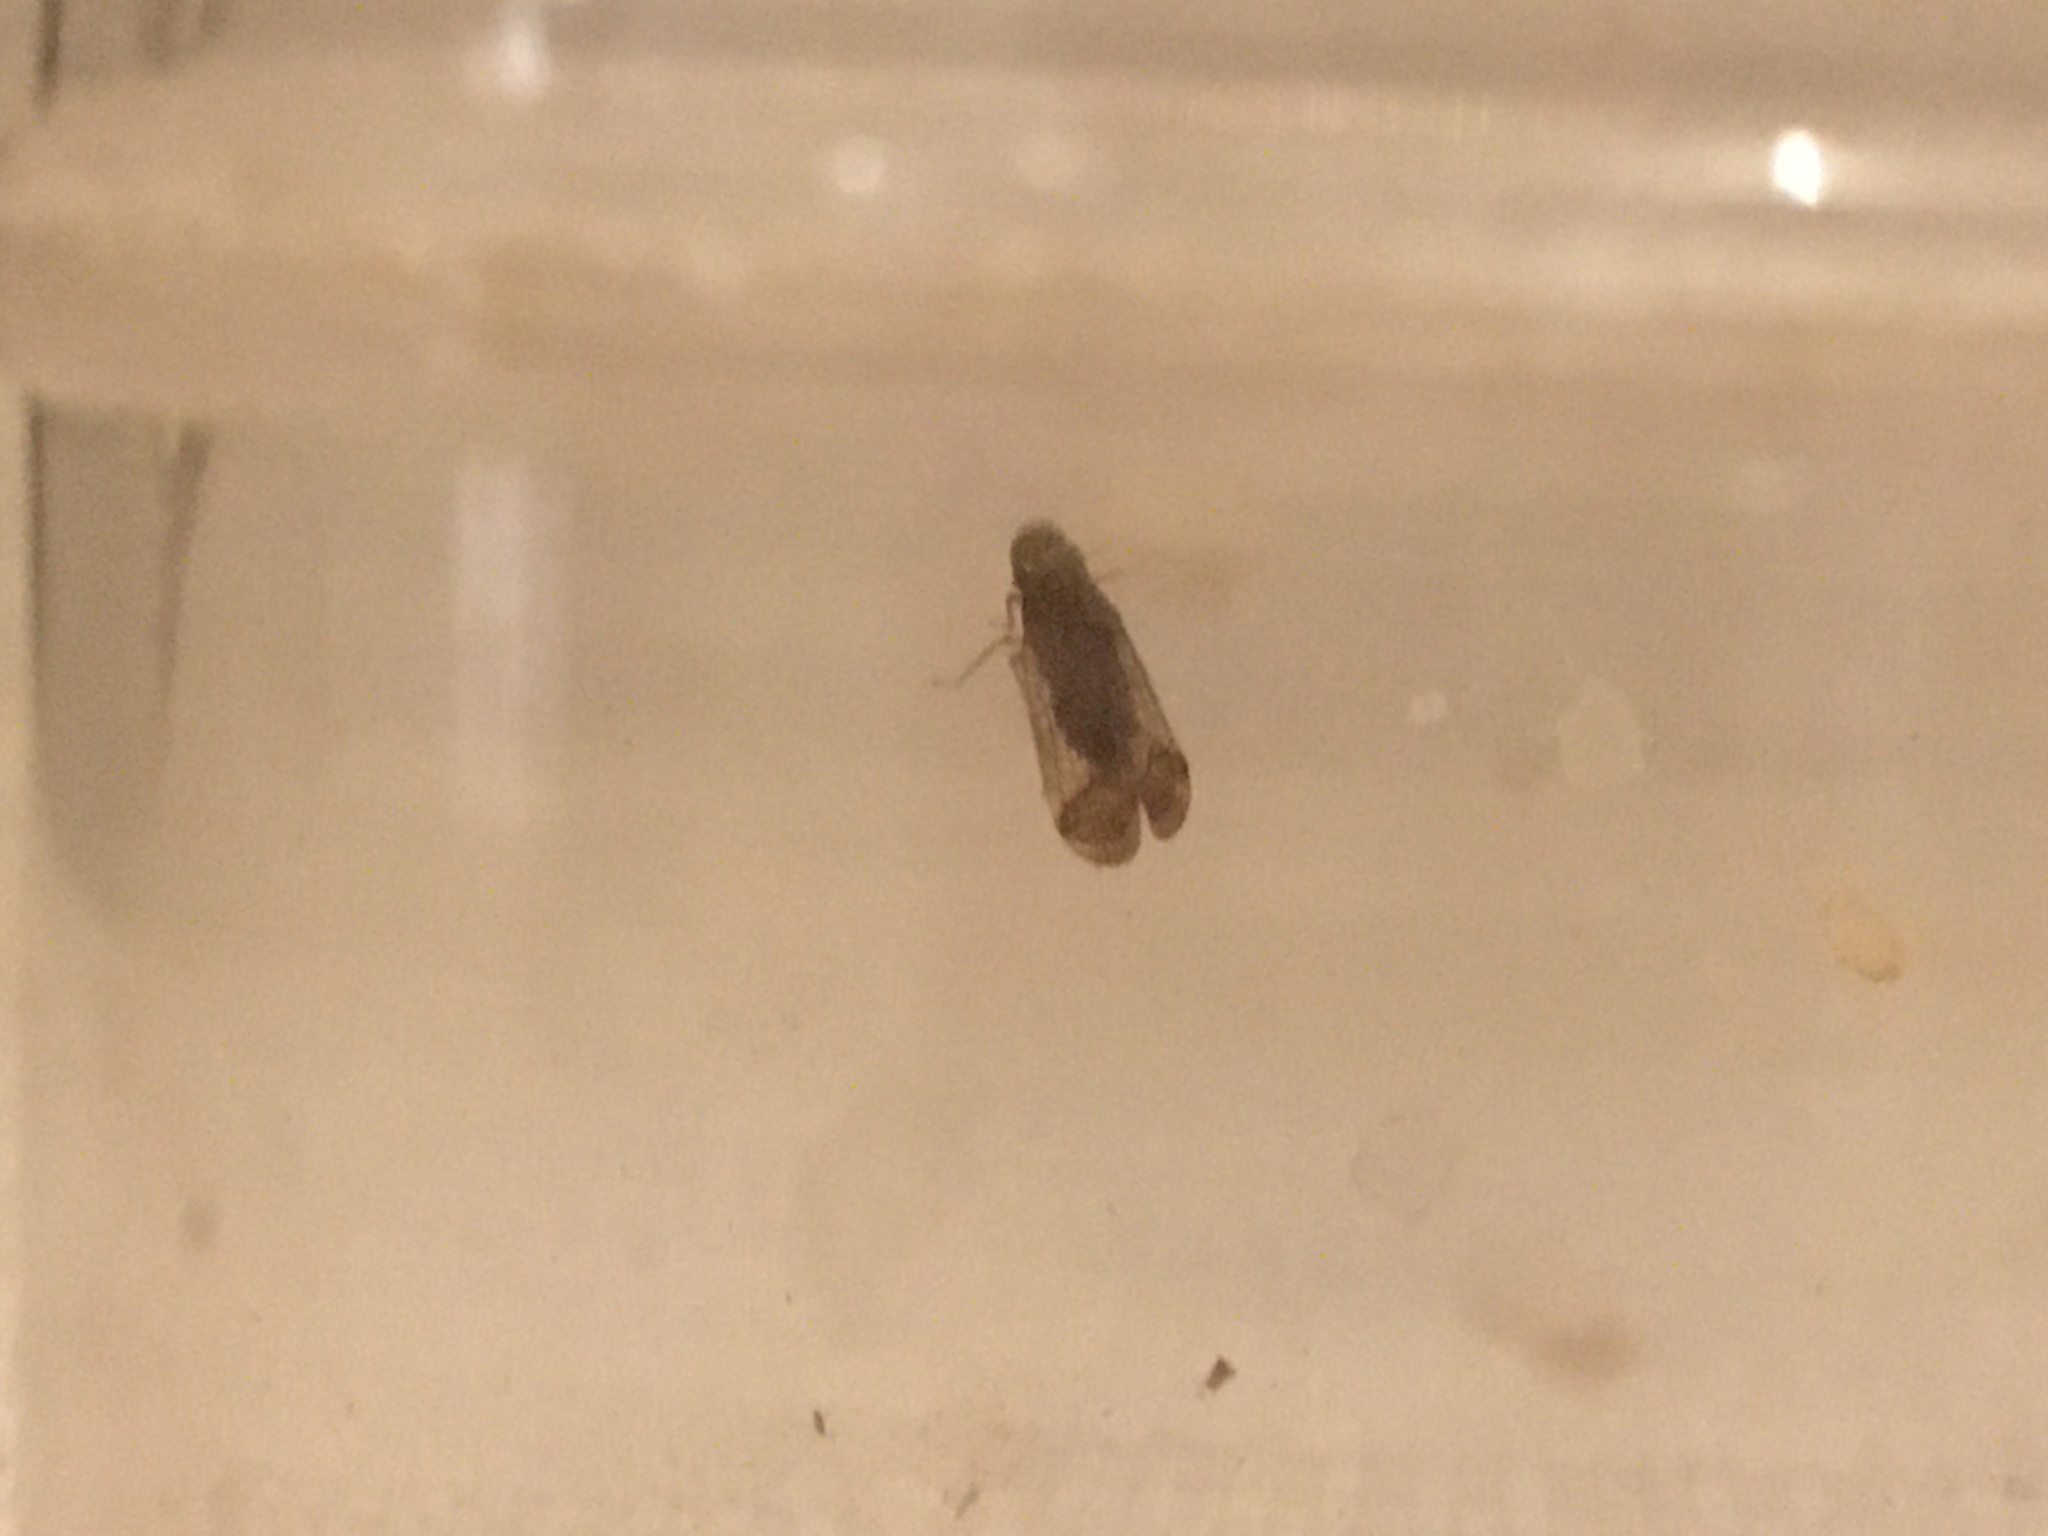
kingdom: Animalia
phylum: Arthropoda
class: Insecta
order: Hemiptera
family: Tropiduchidae
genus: Pelitropis
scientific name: Pelitropis rotulata
